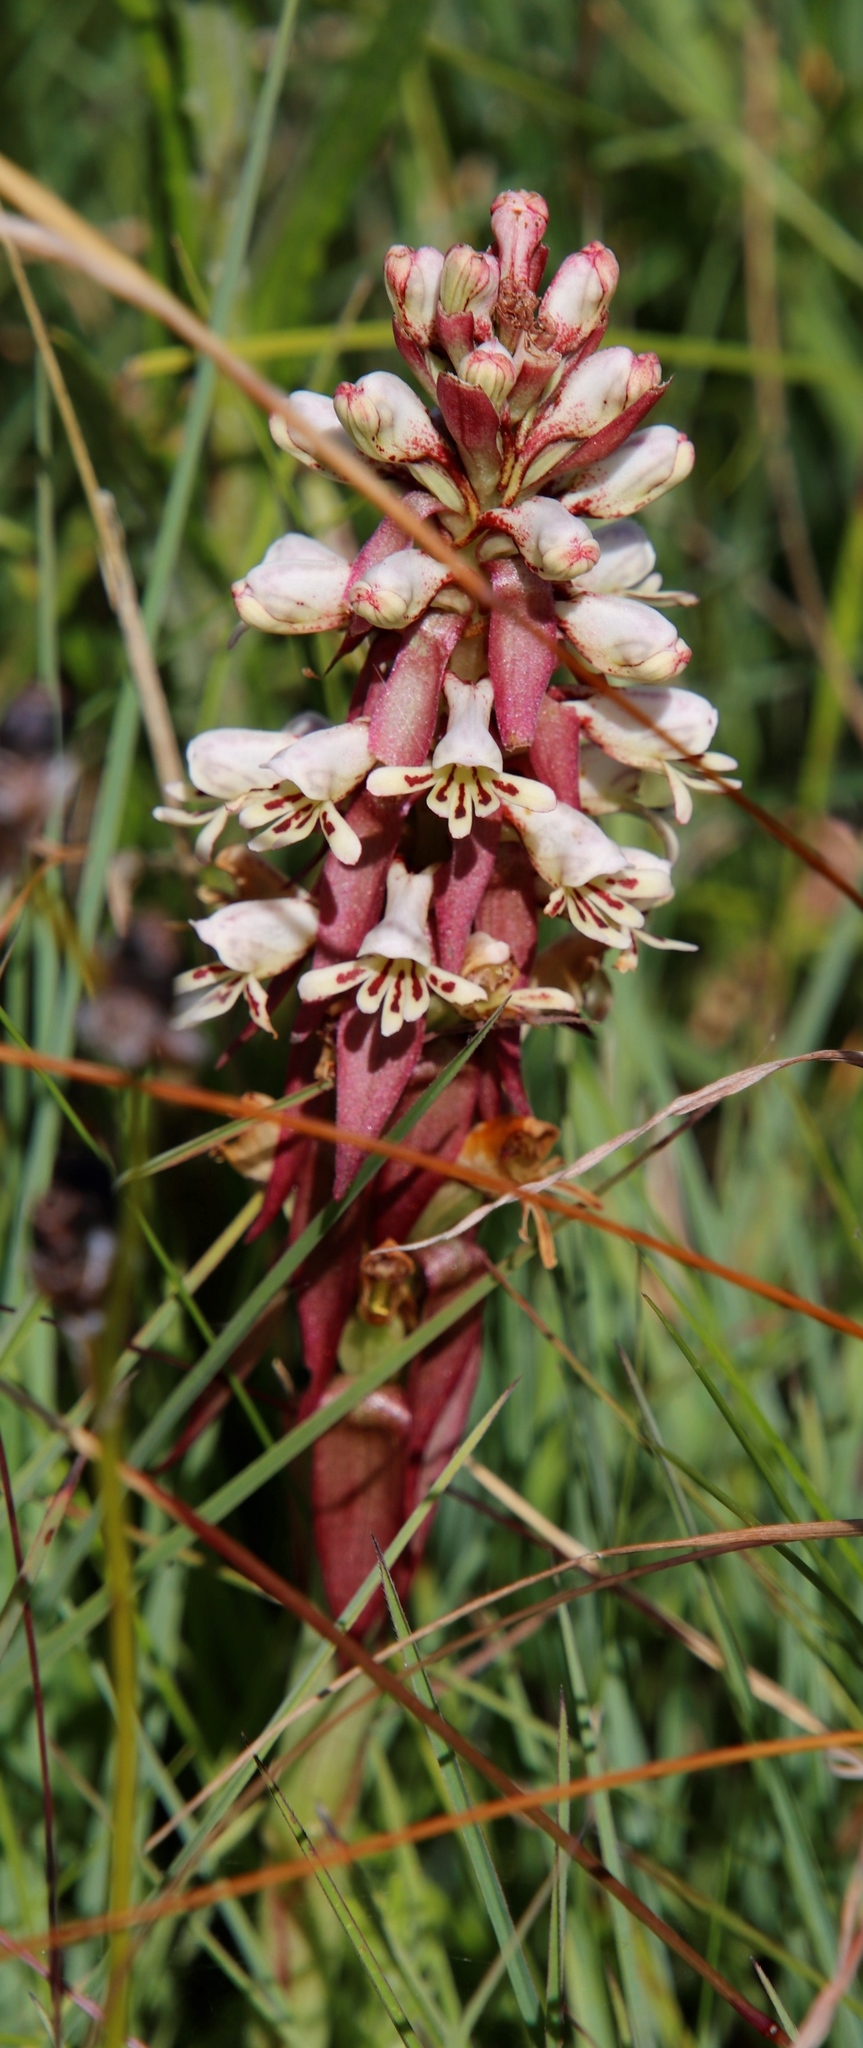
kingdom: Plantae
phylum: Tracheophyta
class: Liliopsida
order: Asparagales
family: Orchidaceae
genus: Satyrium
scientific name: Satyrium cristatum
